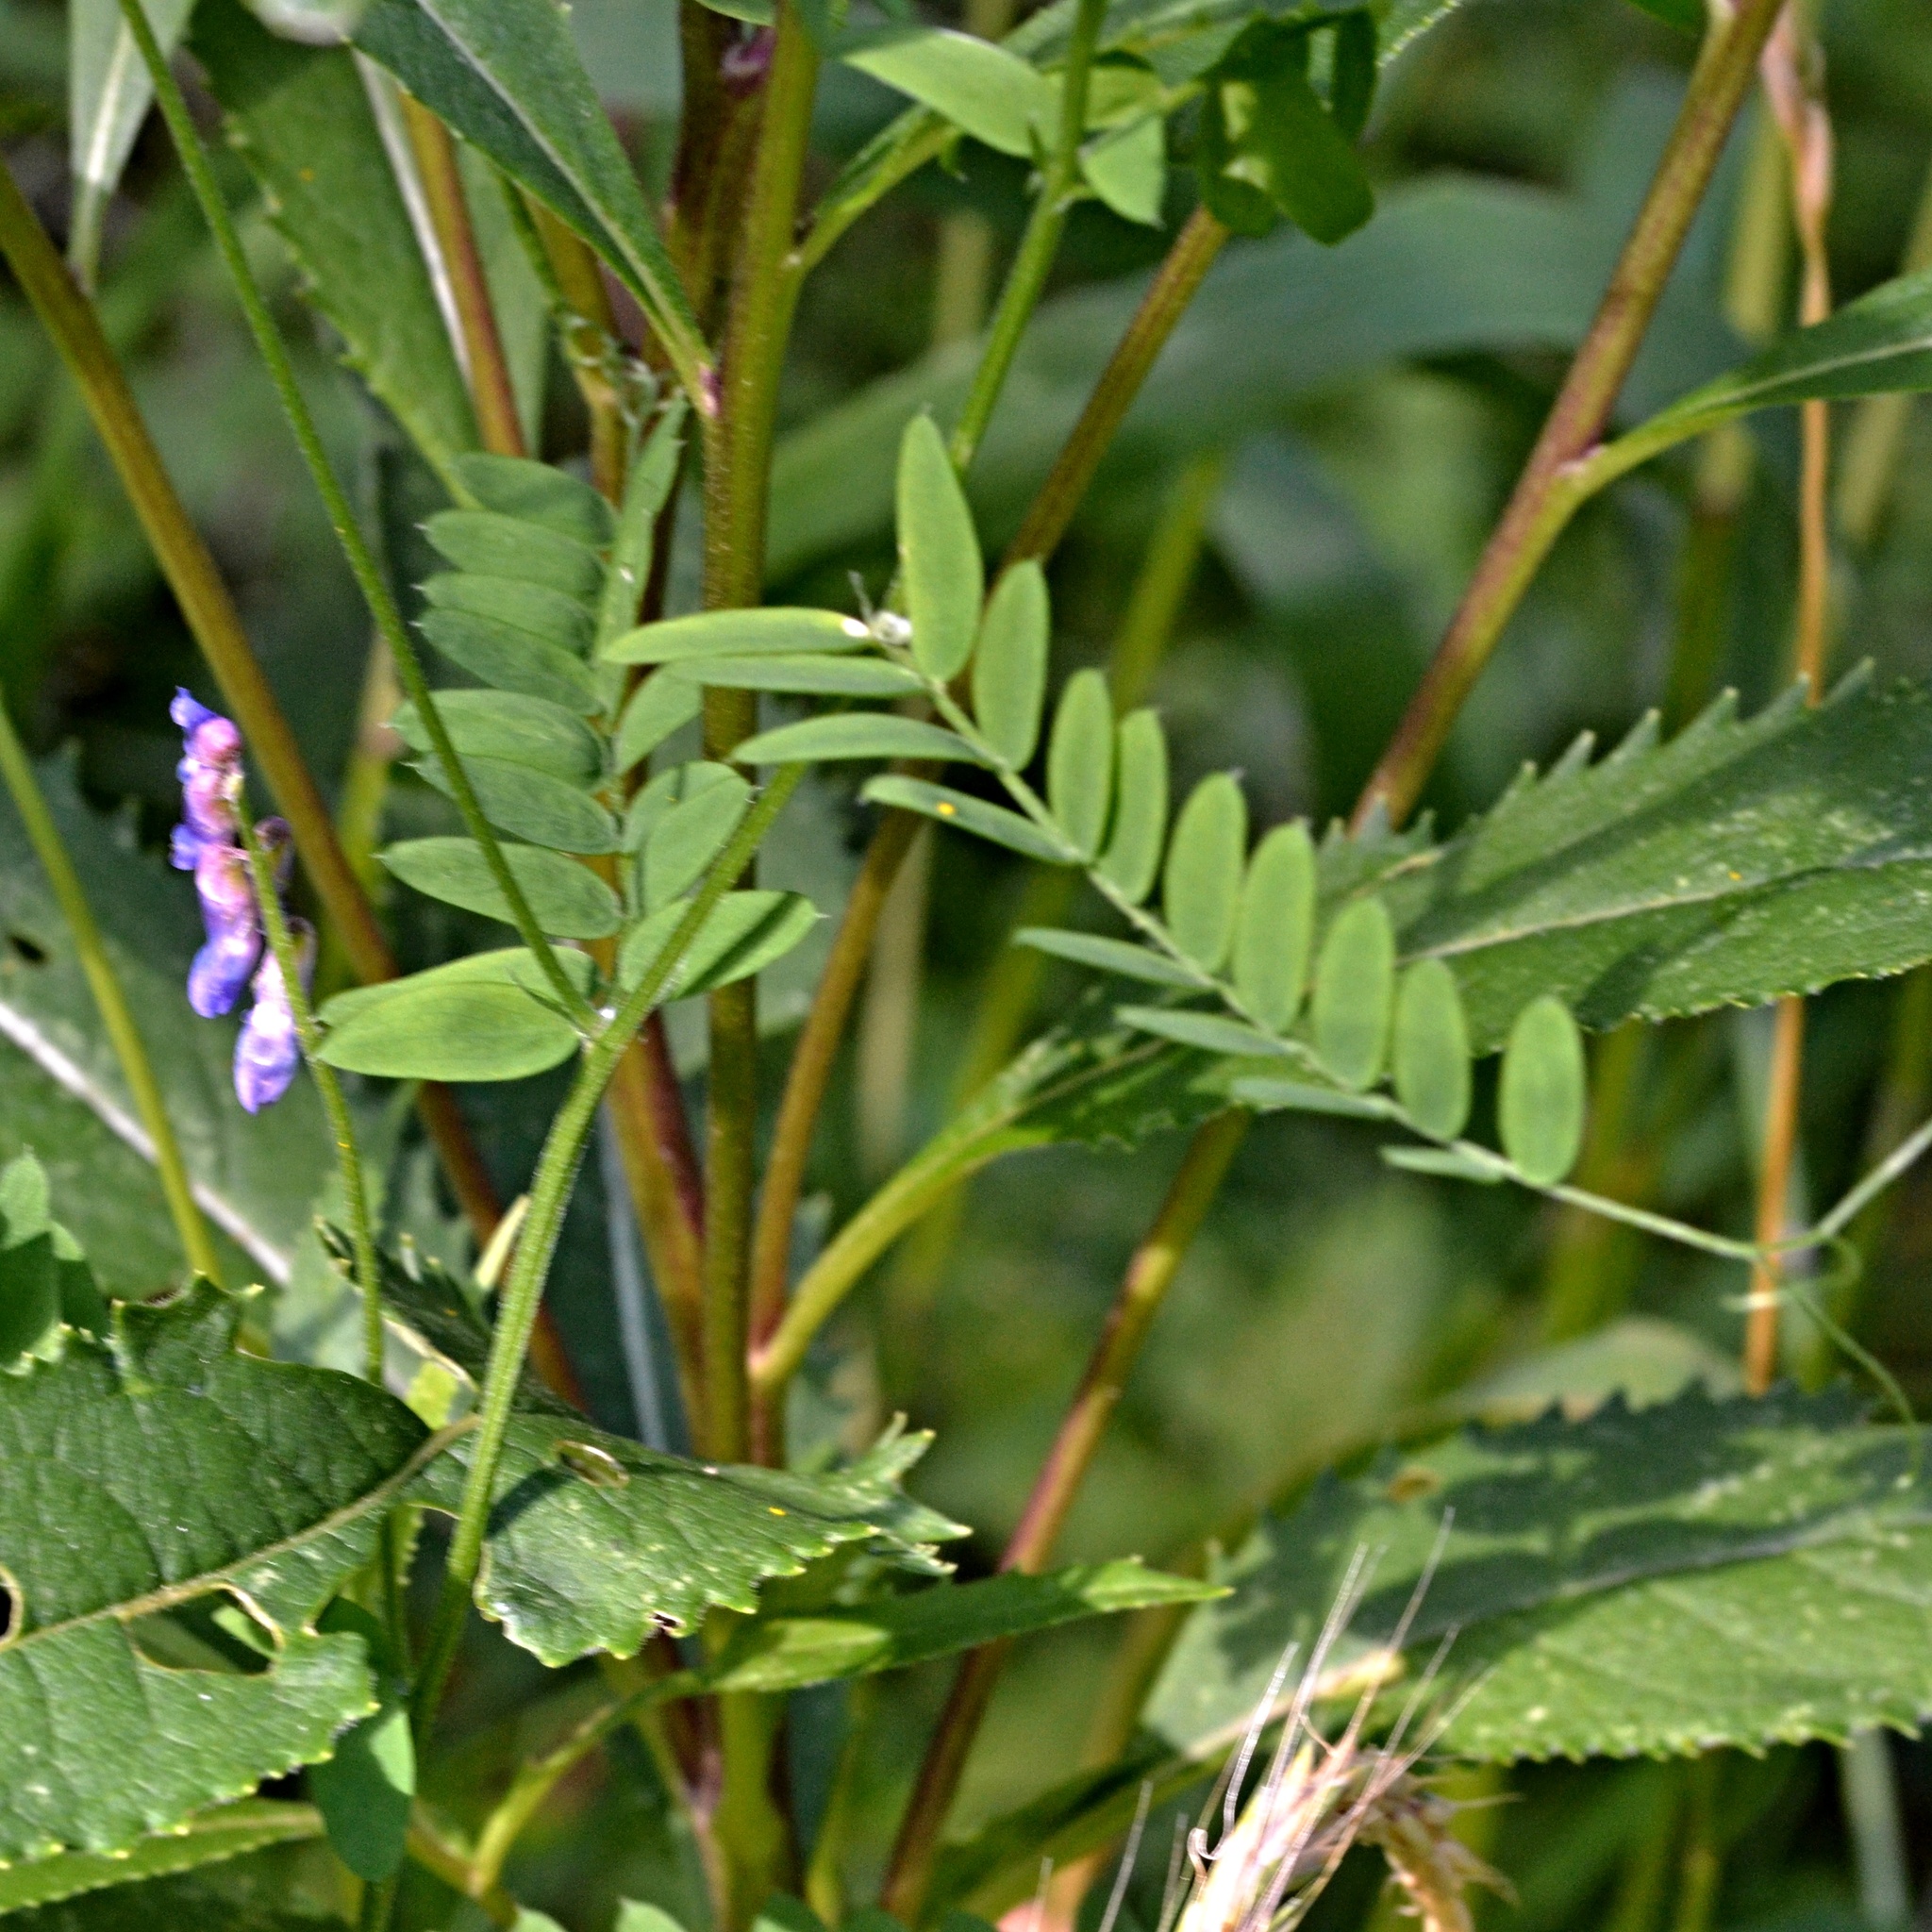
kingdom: Plantae
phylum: Tracheophyta
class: Magnoliopsida
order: Fabales
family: Fabaceae
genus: Vicia
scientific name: Vicia cracca
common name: Bird vetch
